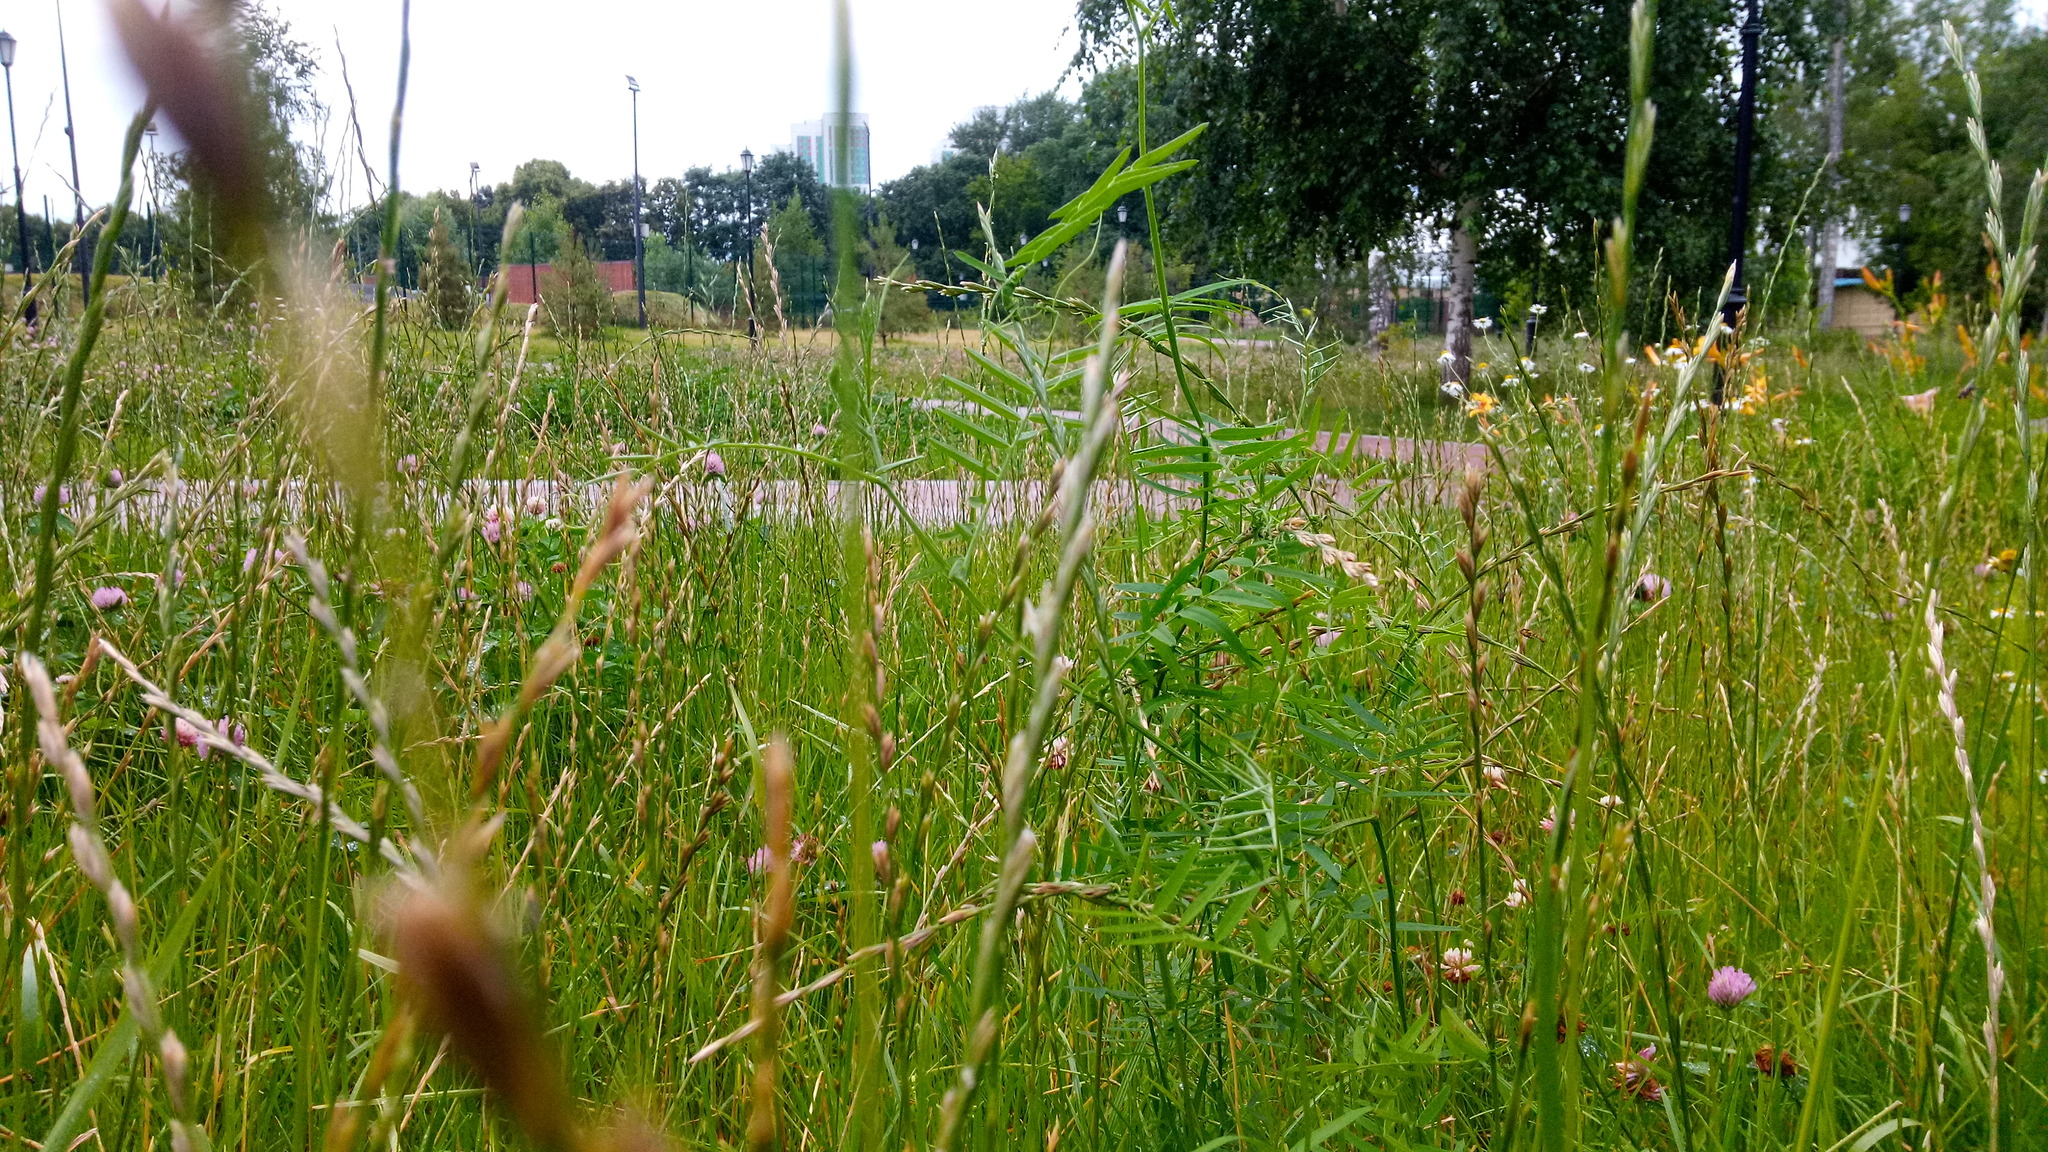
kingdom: Plantae
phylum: Tracheophyta
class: Magnoliopsida
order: Fabales
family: Fabaceae
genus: Vicia
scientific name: Vicia cracca
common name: Bird vetch
